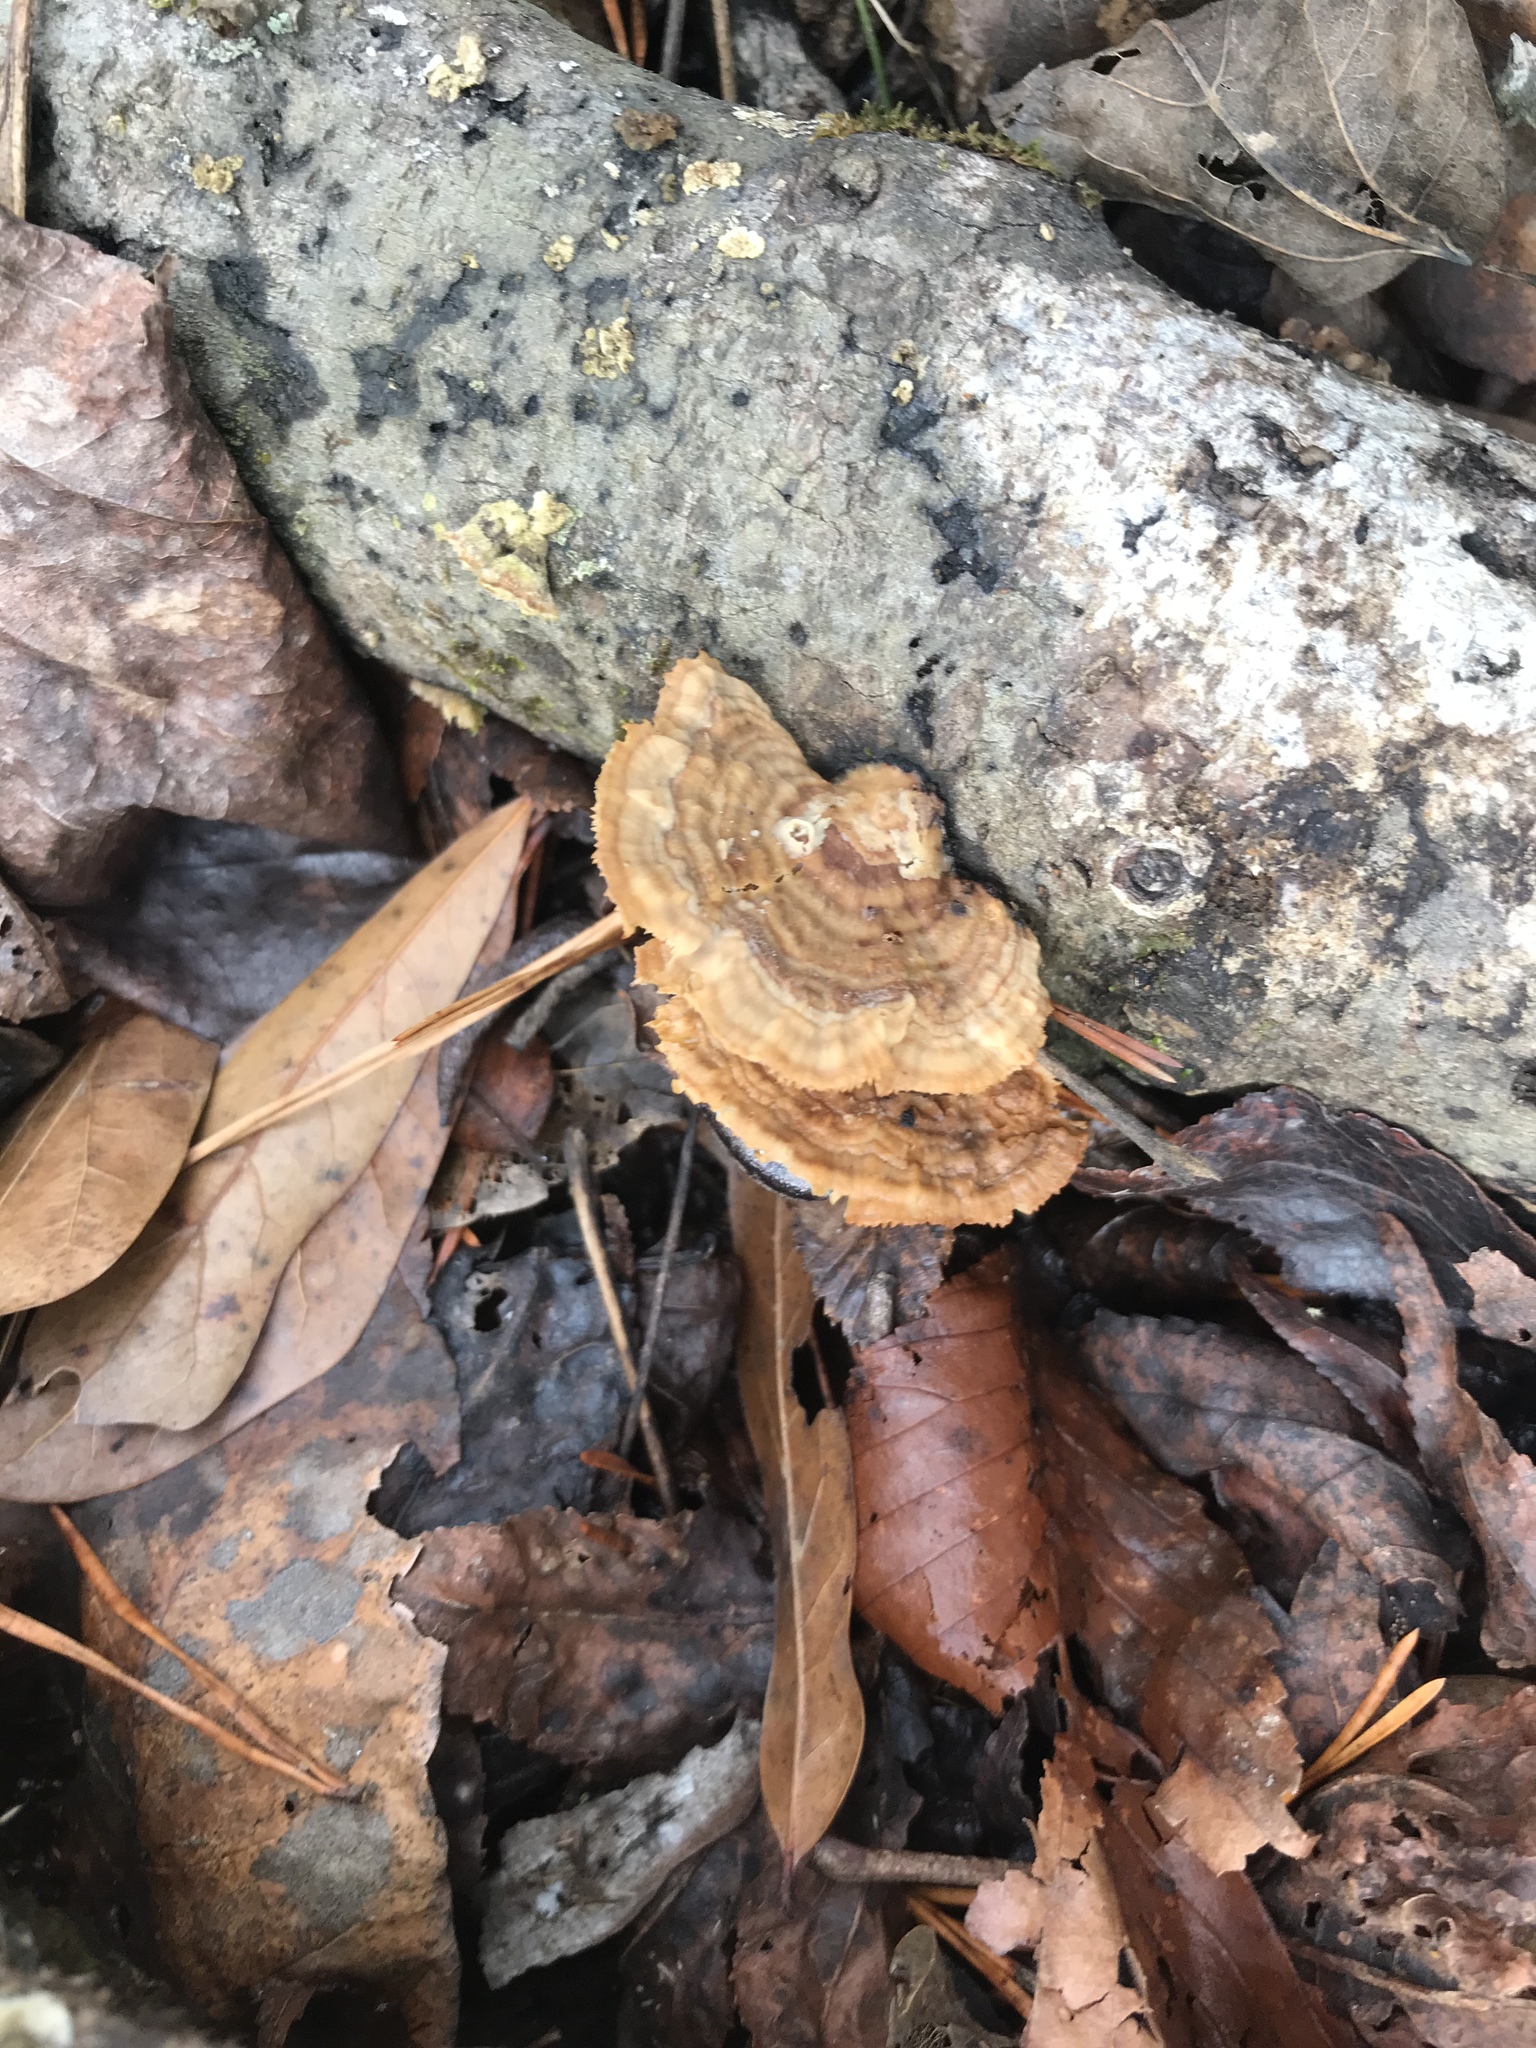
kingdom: Fungi
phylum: Basidiomycota
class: Agaricomycetes
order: Polyporales
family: Polyporaceae
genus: Trametes
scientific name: Trametes cubensis
